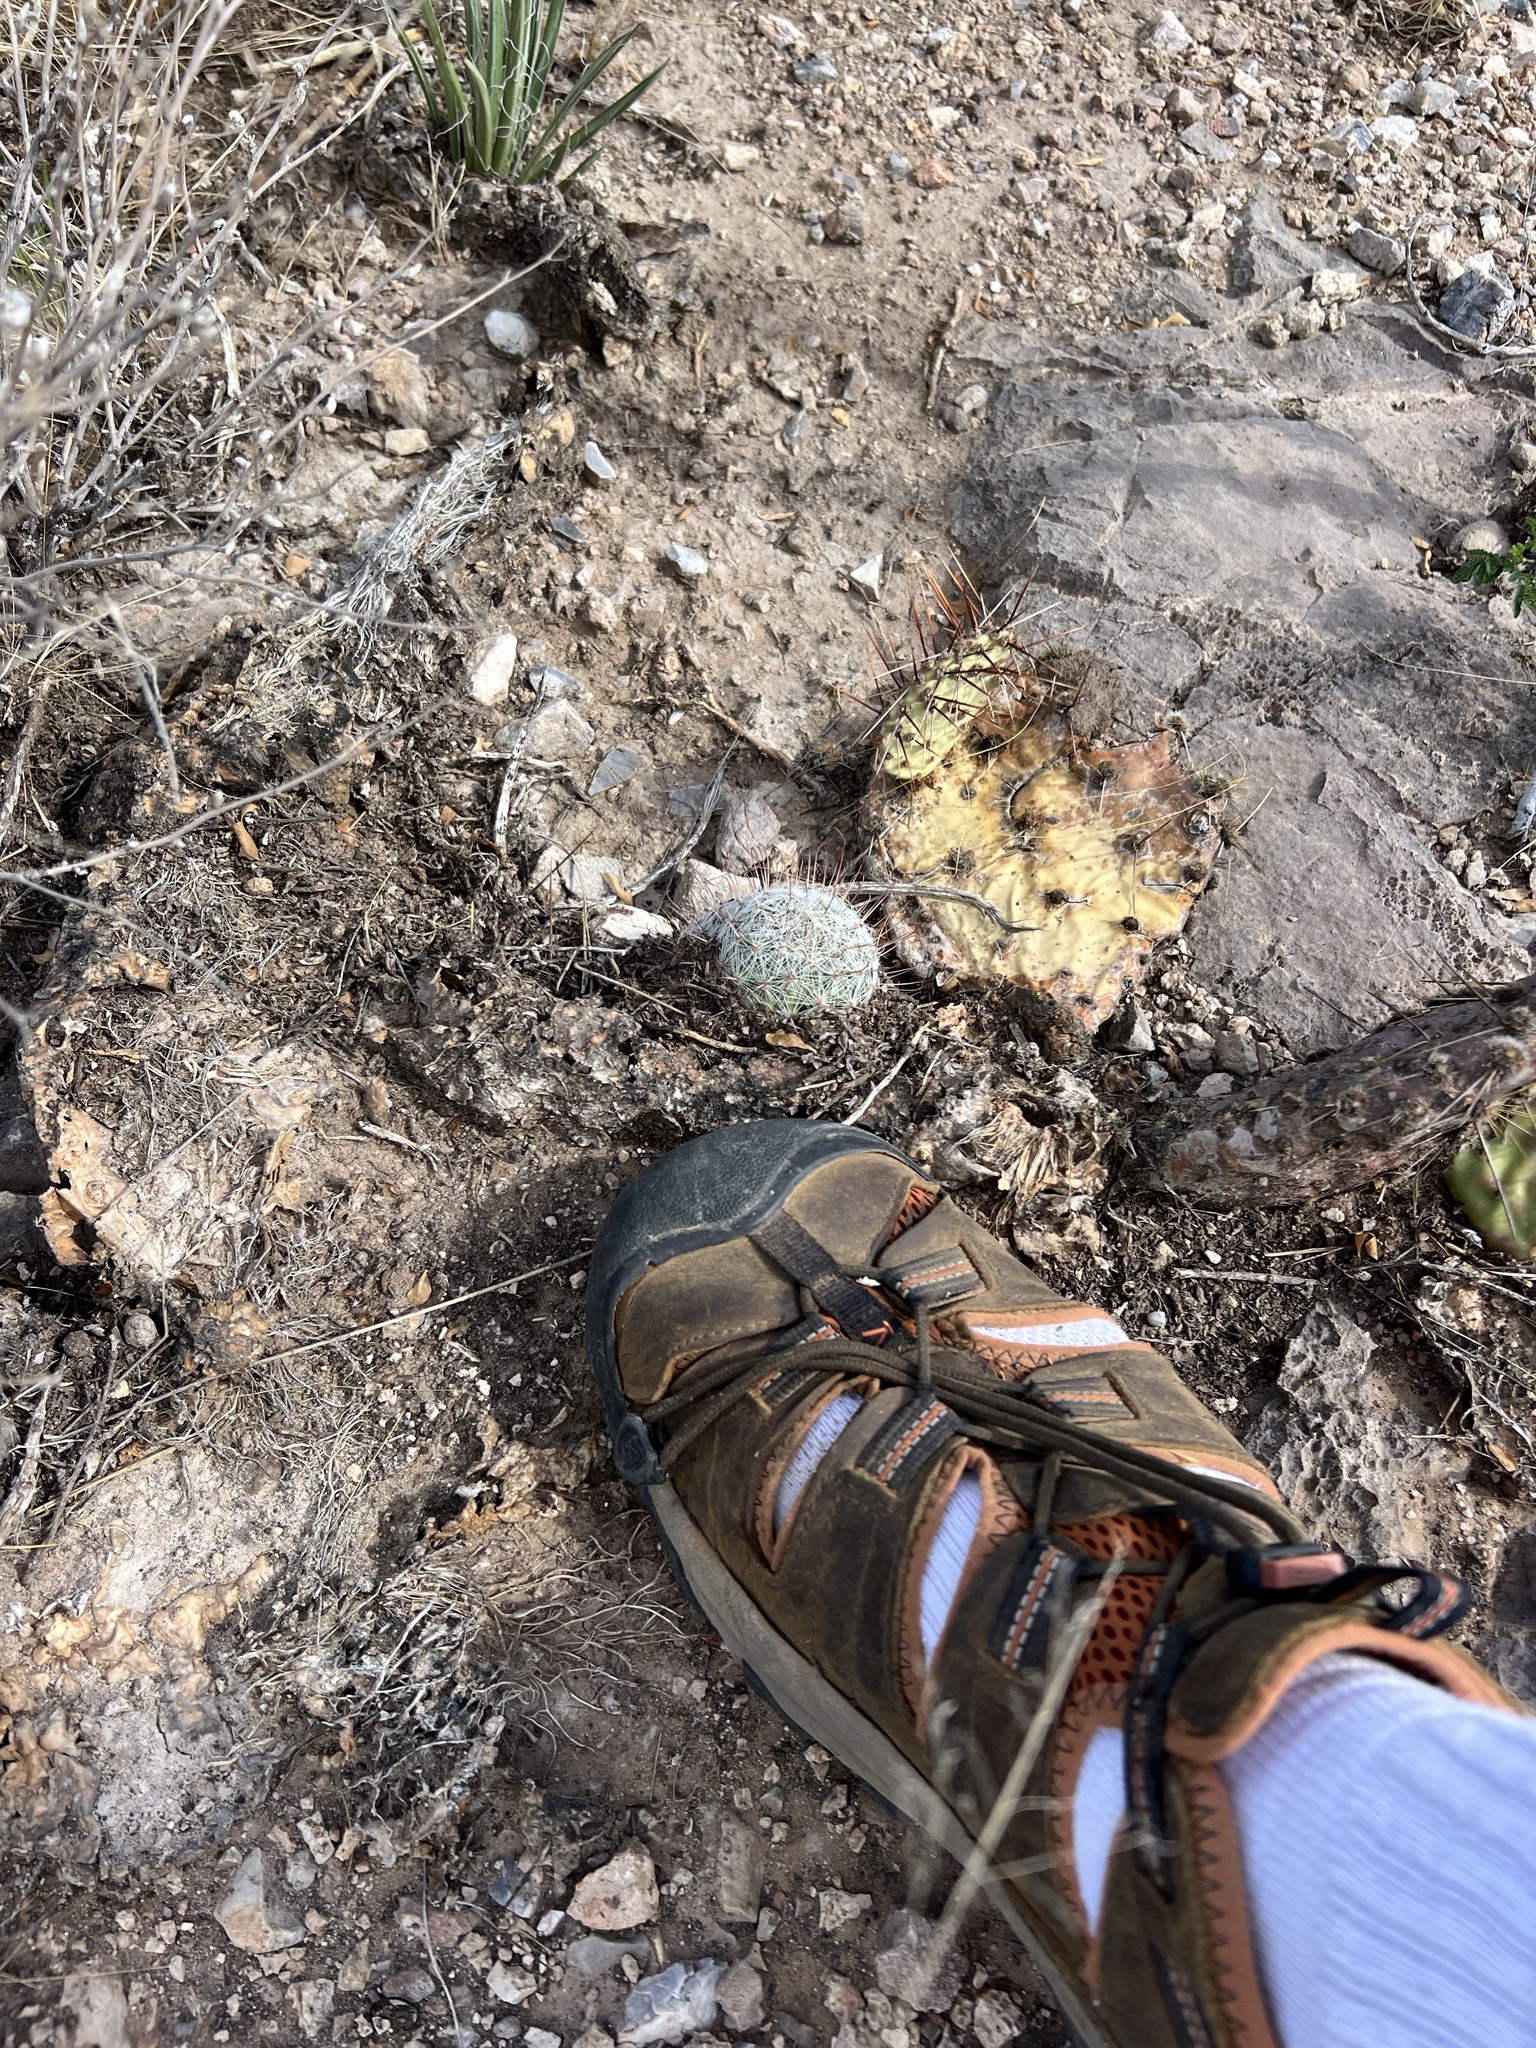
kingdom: Plantae
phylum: Tracheophyta
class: Magnoliopsida
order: Caryophyllales
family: Cactaceae
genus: Cochemiea
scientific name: Cochemiea grahamii
